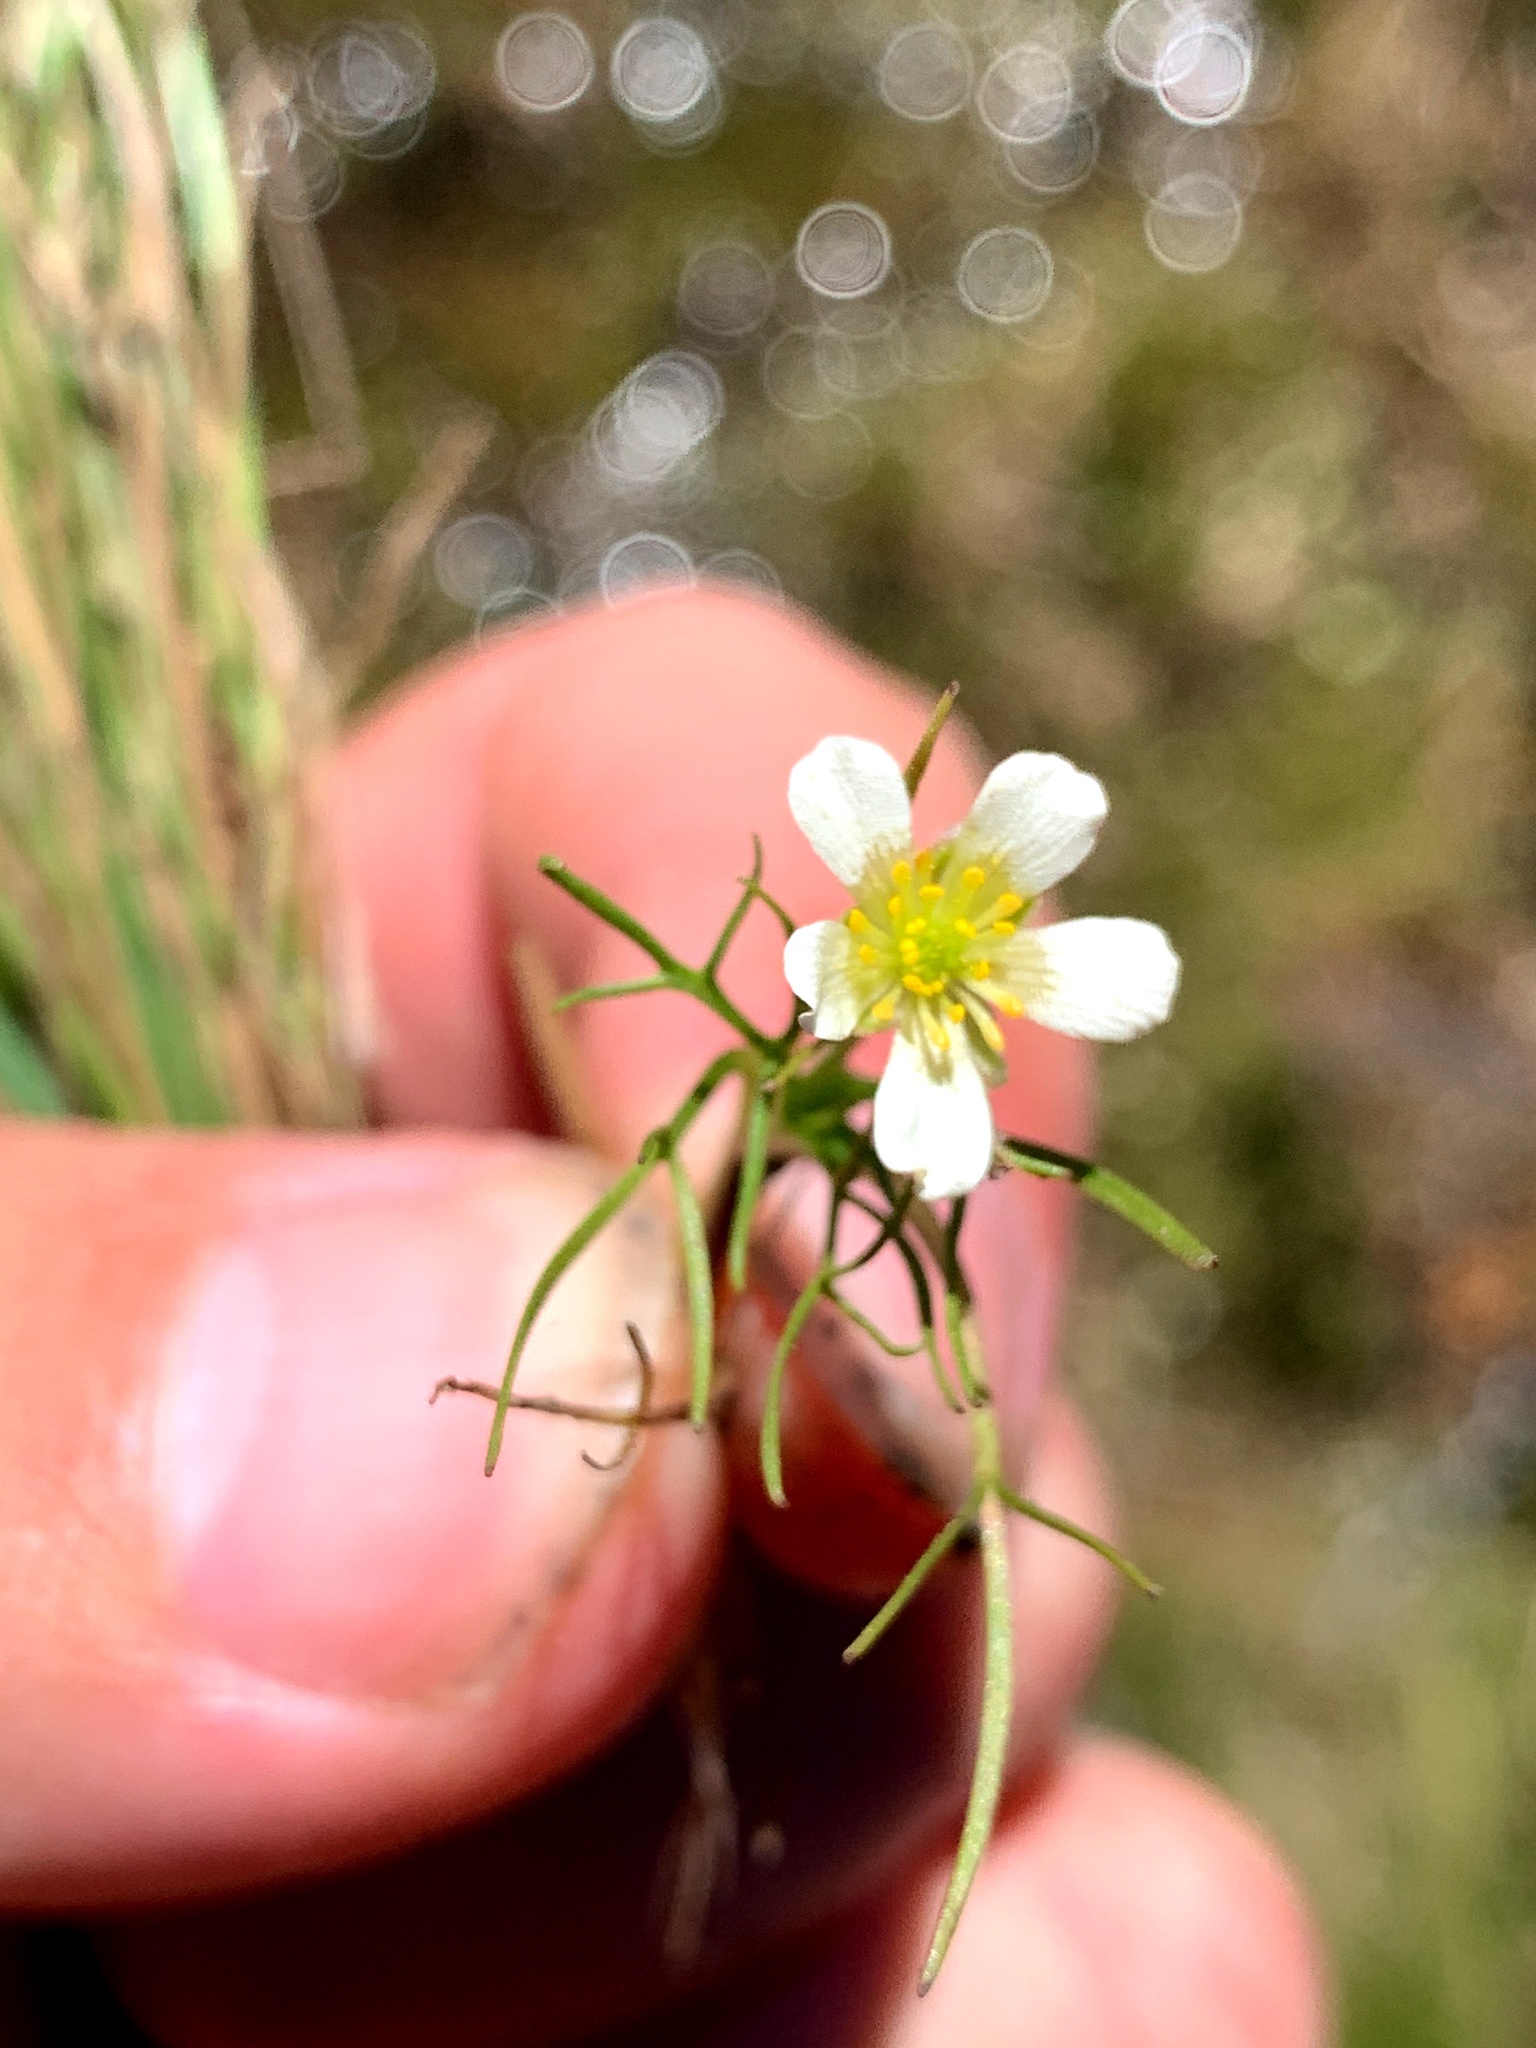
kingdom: Plantae
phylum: Tracheophyta
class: Magnoliopsida
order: Ranunculales
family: Ranunculaceae
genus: Ranunculus
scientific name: Ranunculus millanii
